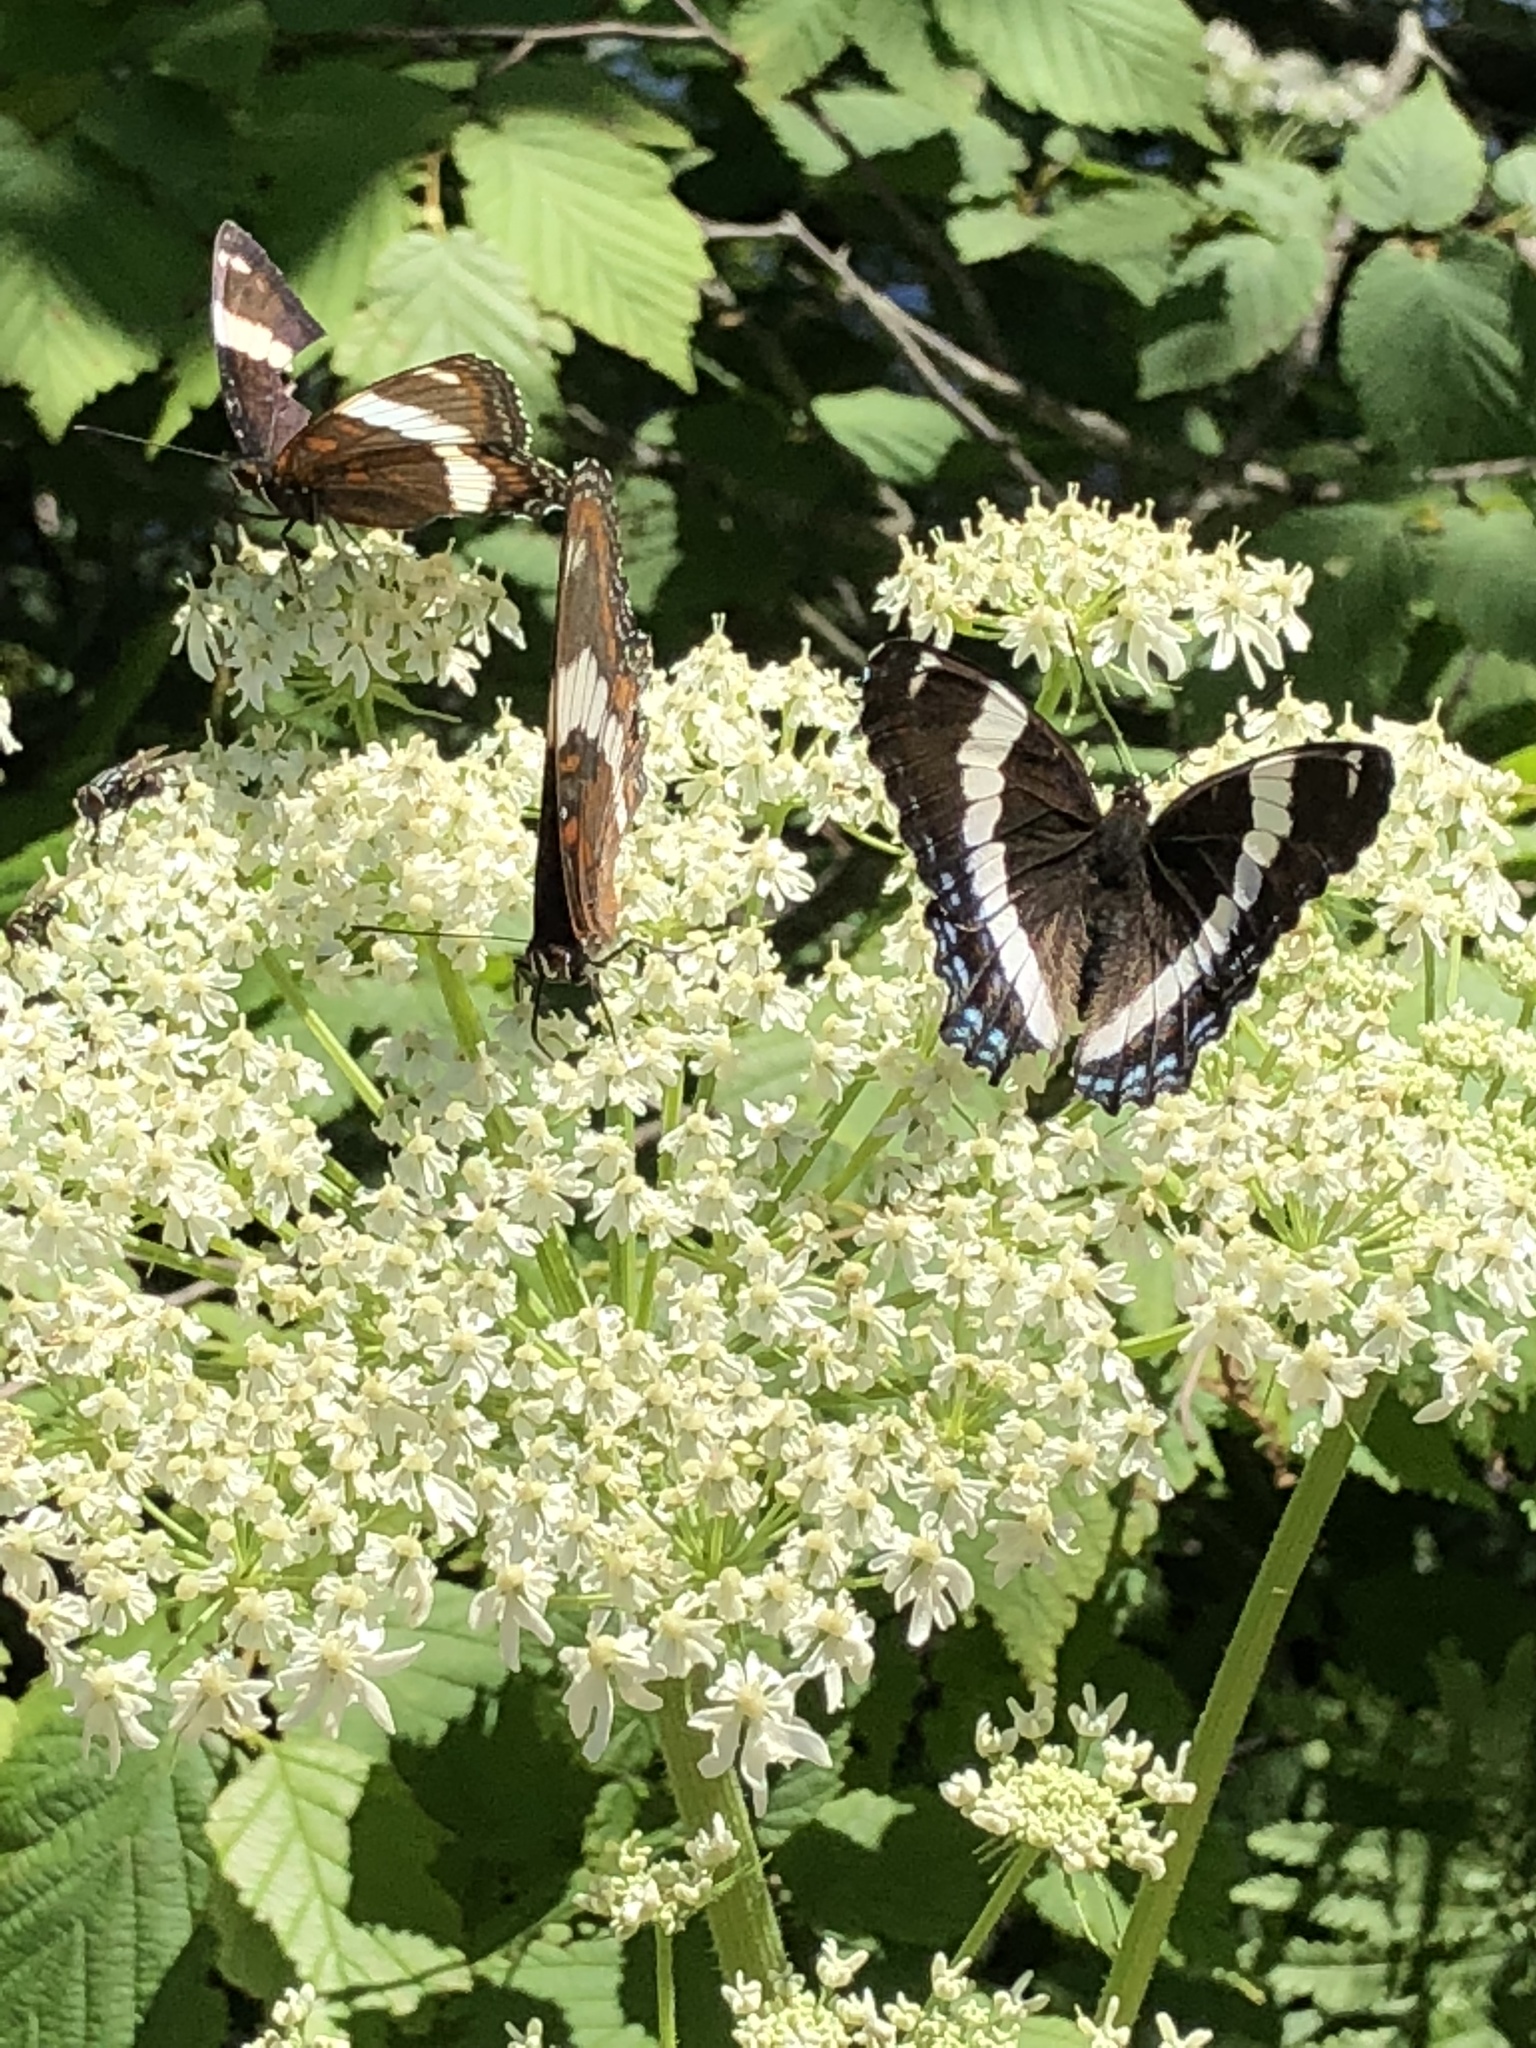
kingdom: Animalia
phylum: Arthropoda
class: Insecta
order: Lepidoptera
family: Nymphalidae
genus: Limenitis
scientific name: Limenitis arthemis
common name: Red-spotted admiral
